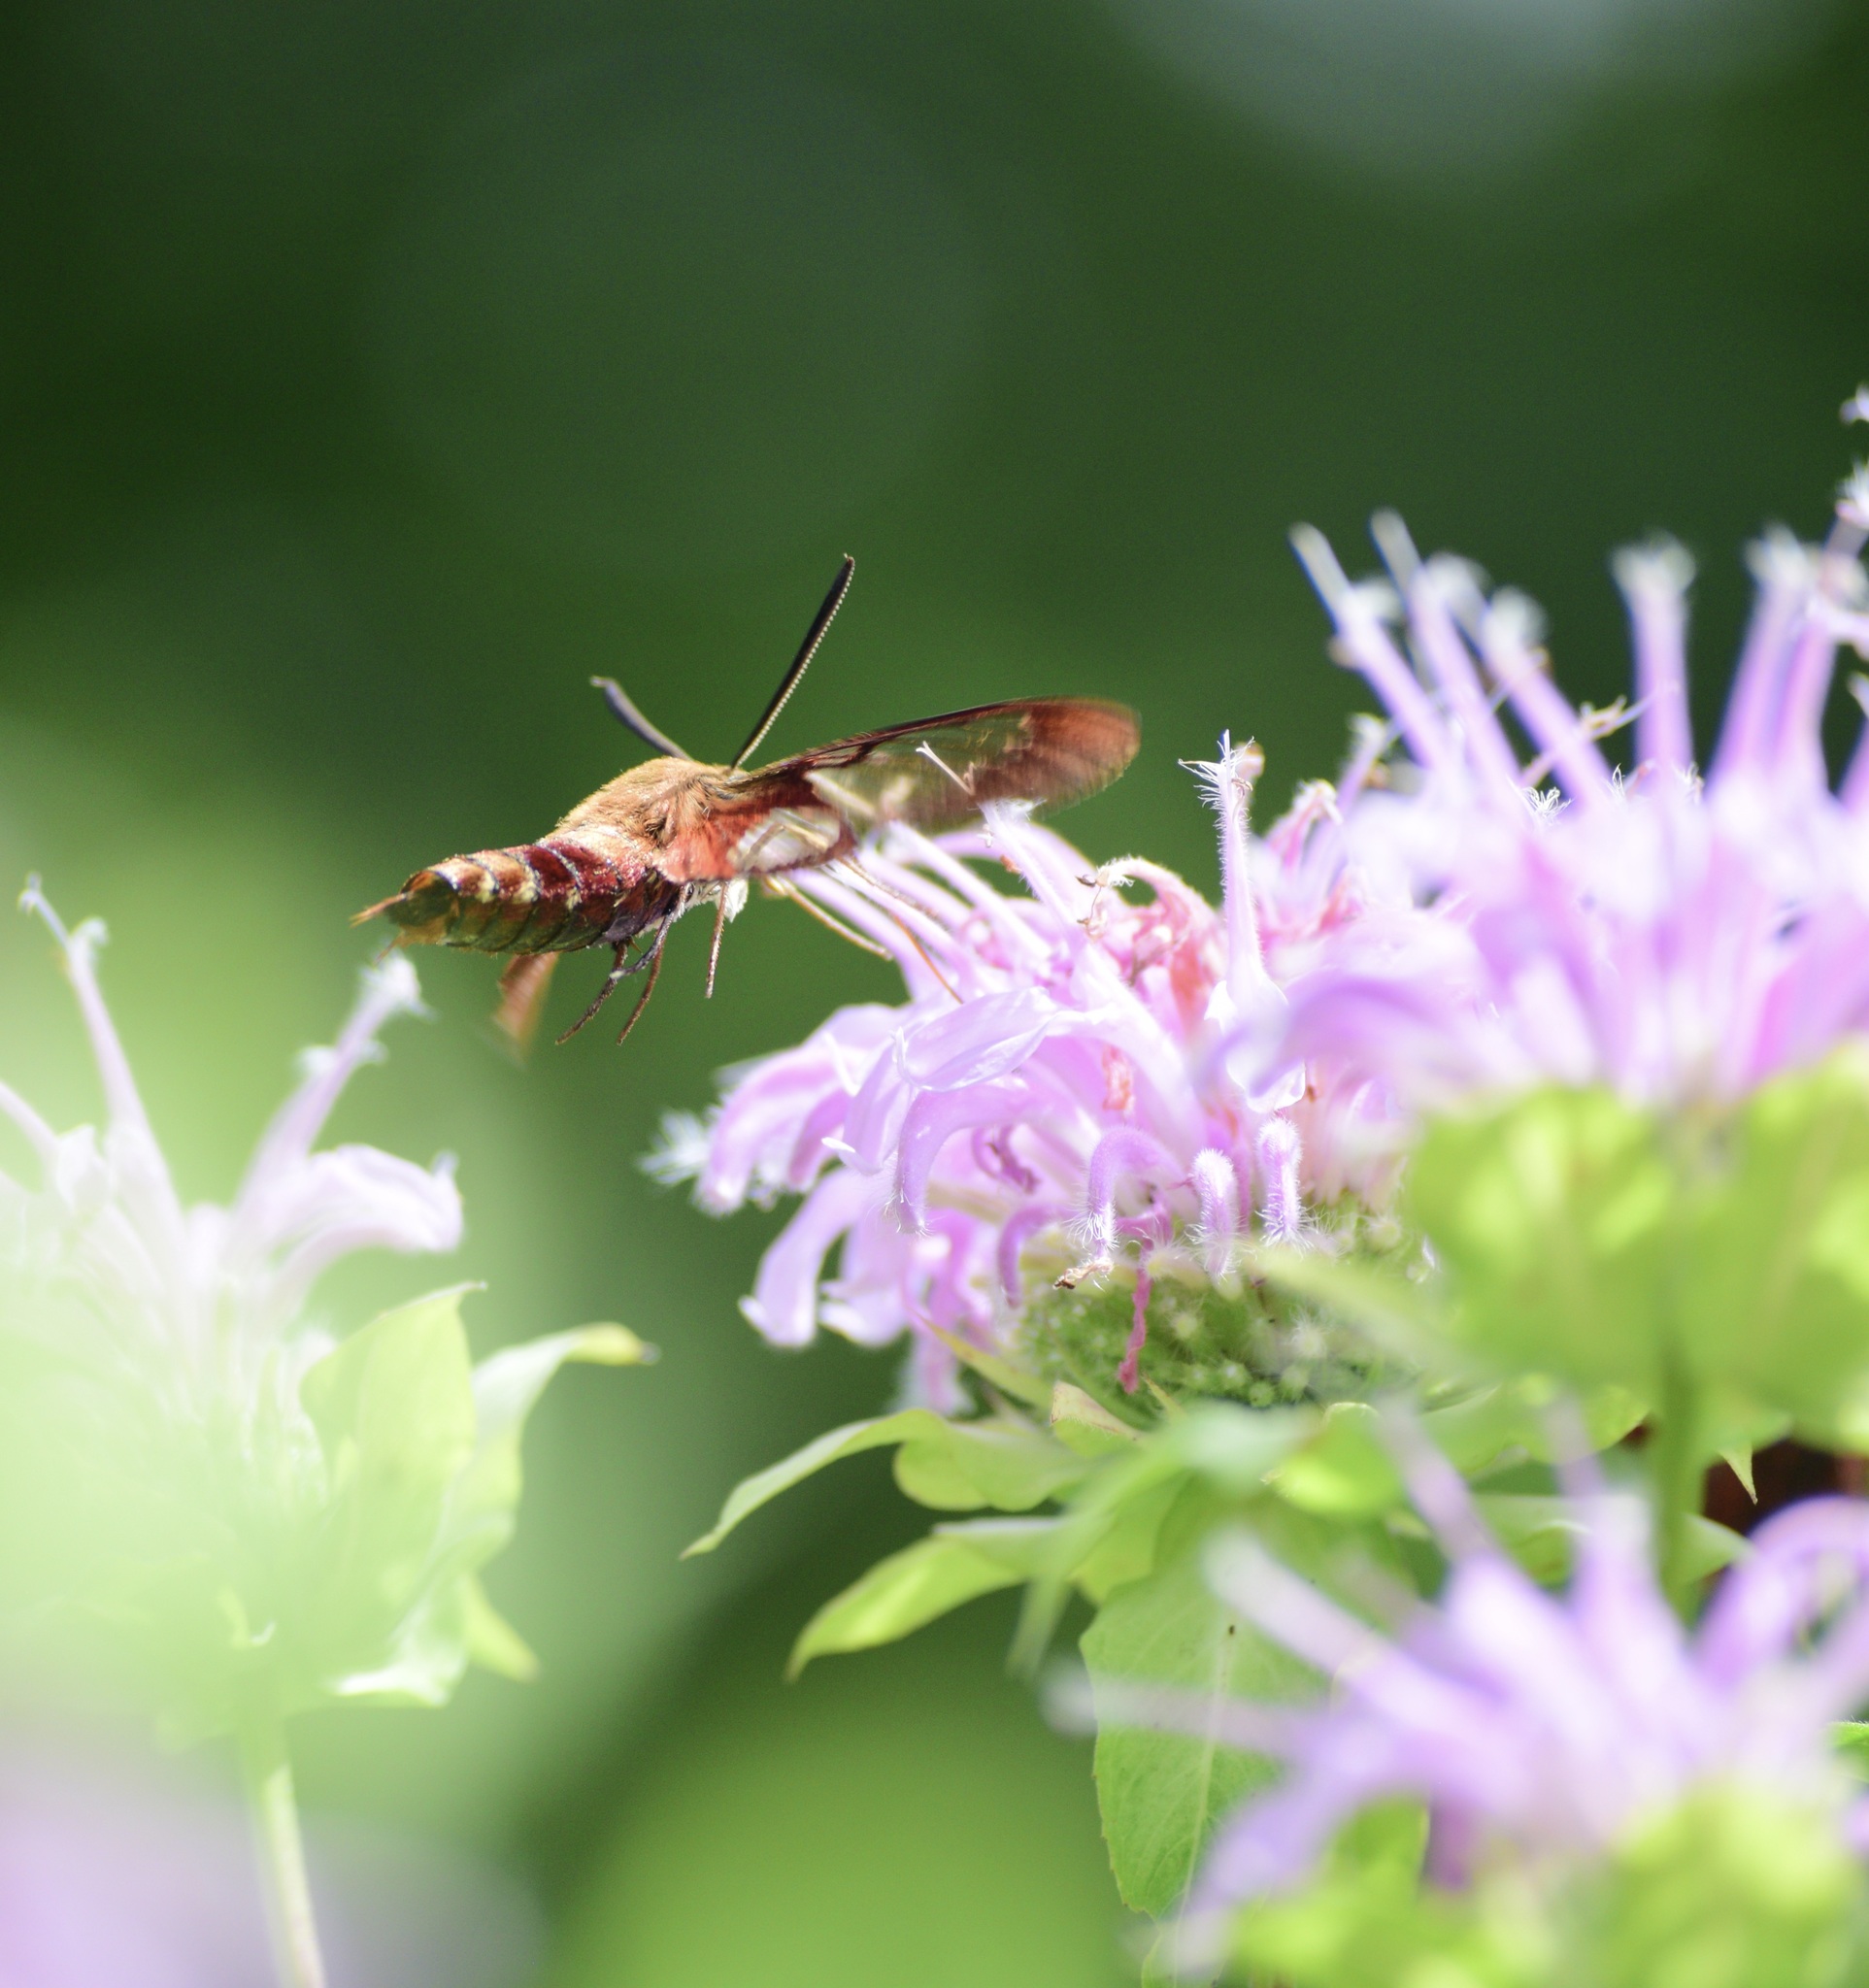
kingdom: Animalia
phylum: Arthropoda
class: Insecta
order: Lepidoptera
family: Sphingidae
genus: Hemaris
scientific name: Hemaris thysbe
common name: Common clear-wing
